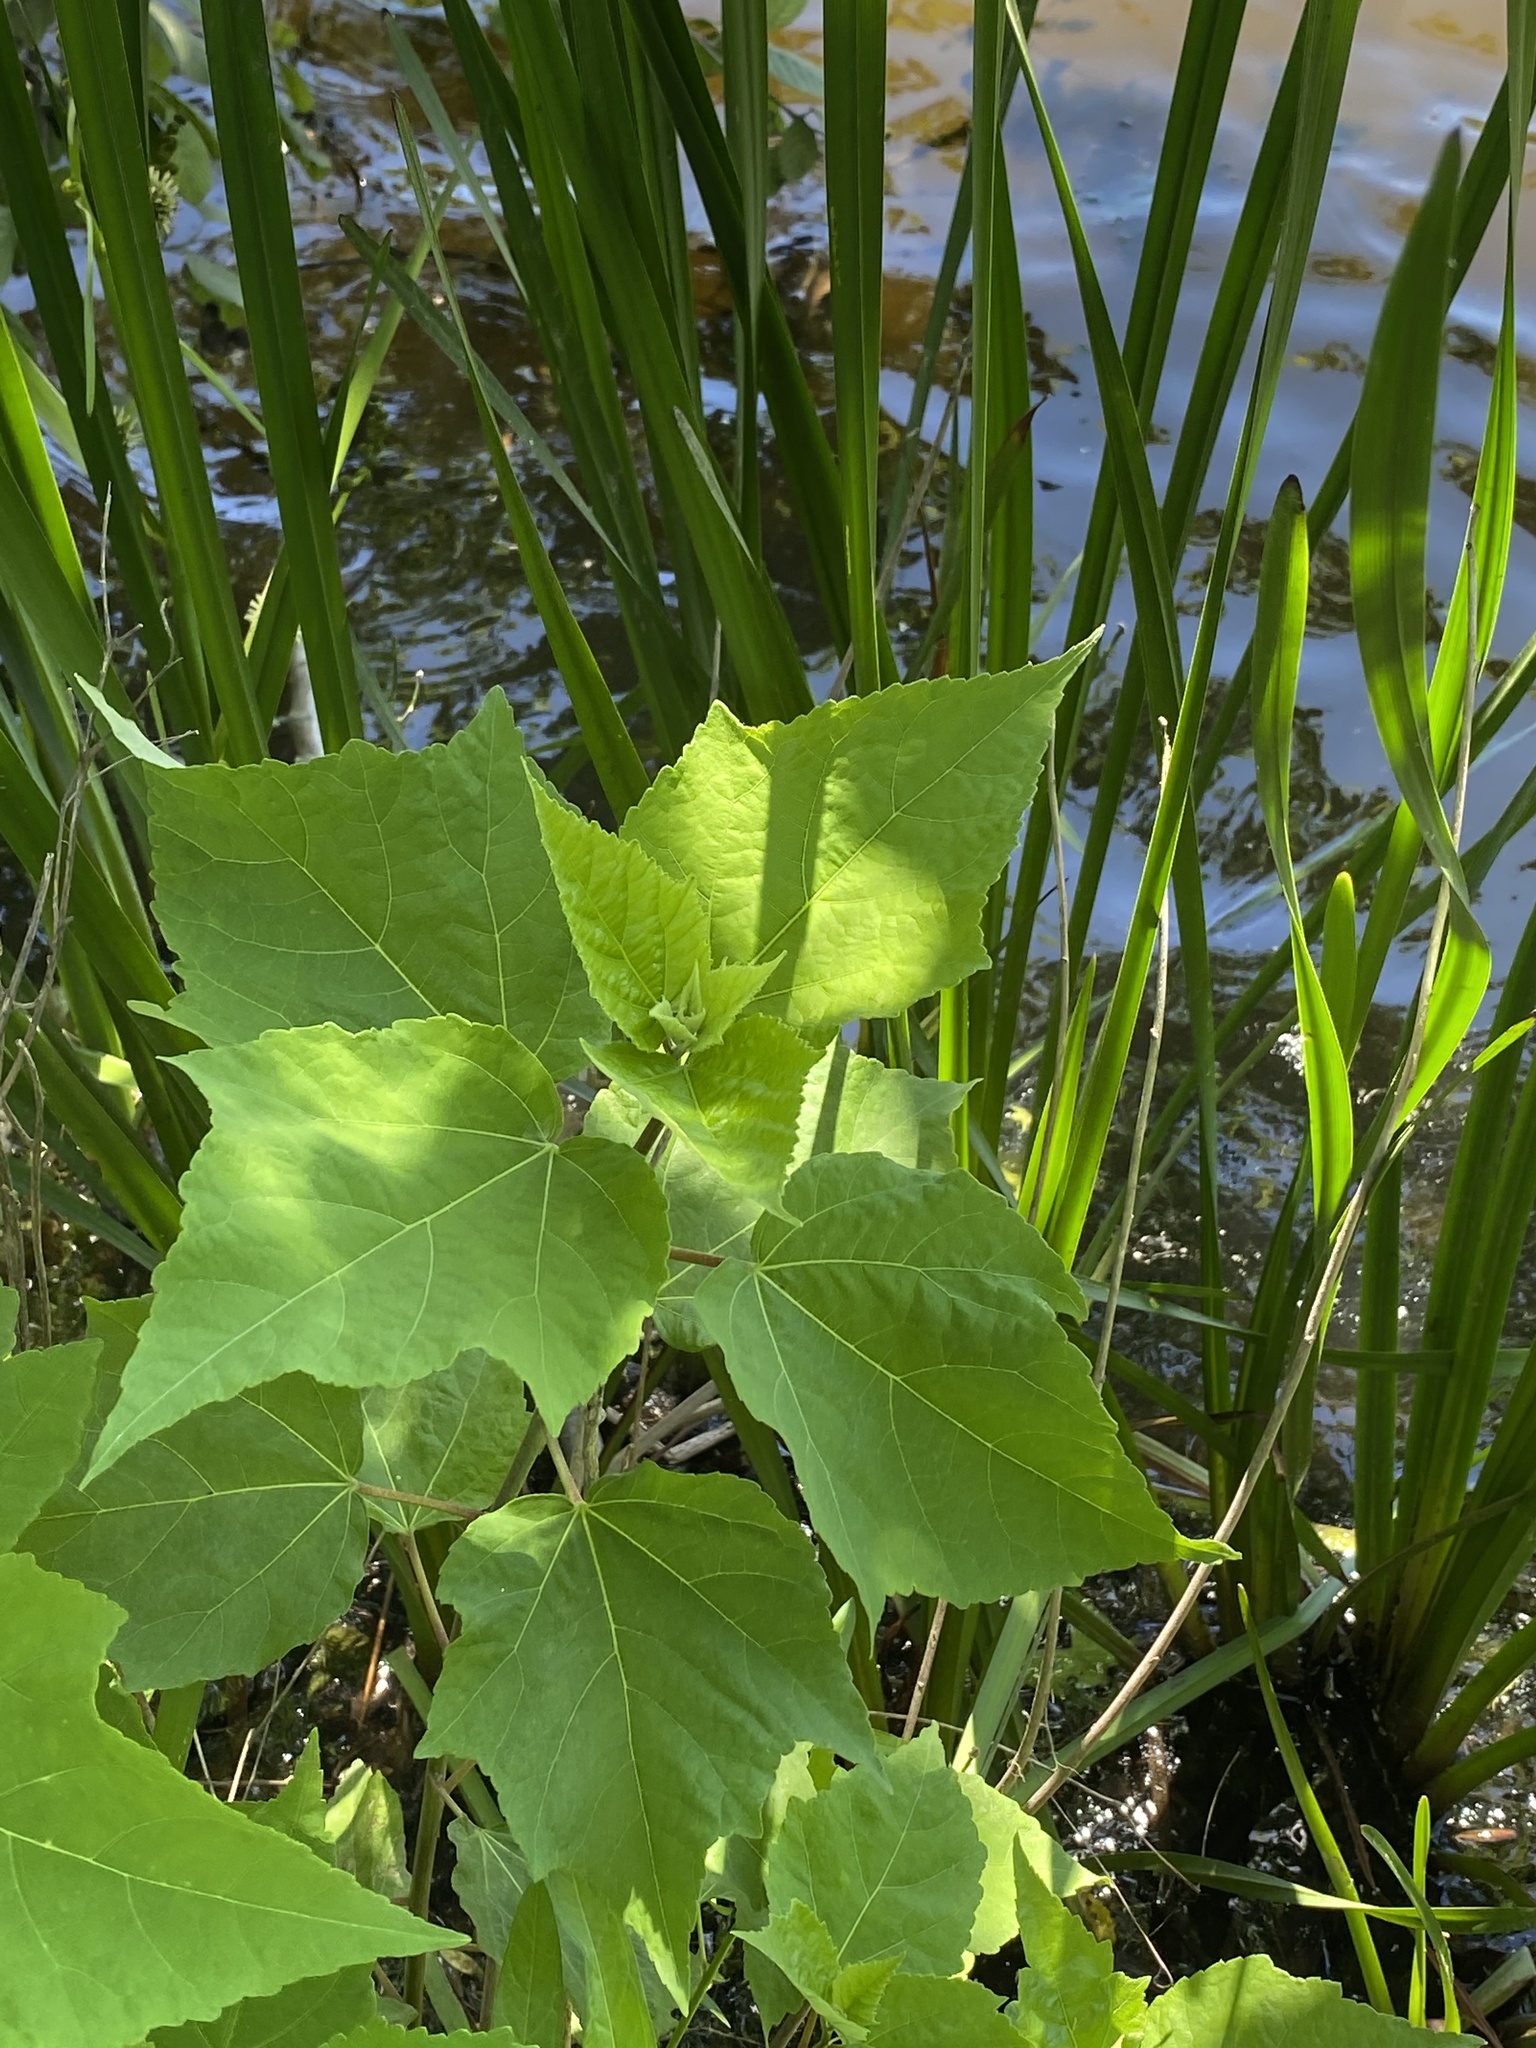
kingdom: Plantae
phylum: Tracheophyta
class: Magnoliopsida
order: Malvales
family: Malvaceae
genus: Hibiscus
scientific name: Hibiscus moscheutos
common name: Common rose-mallow
